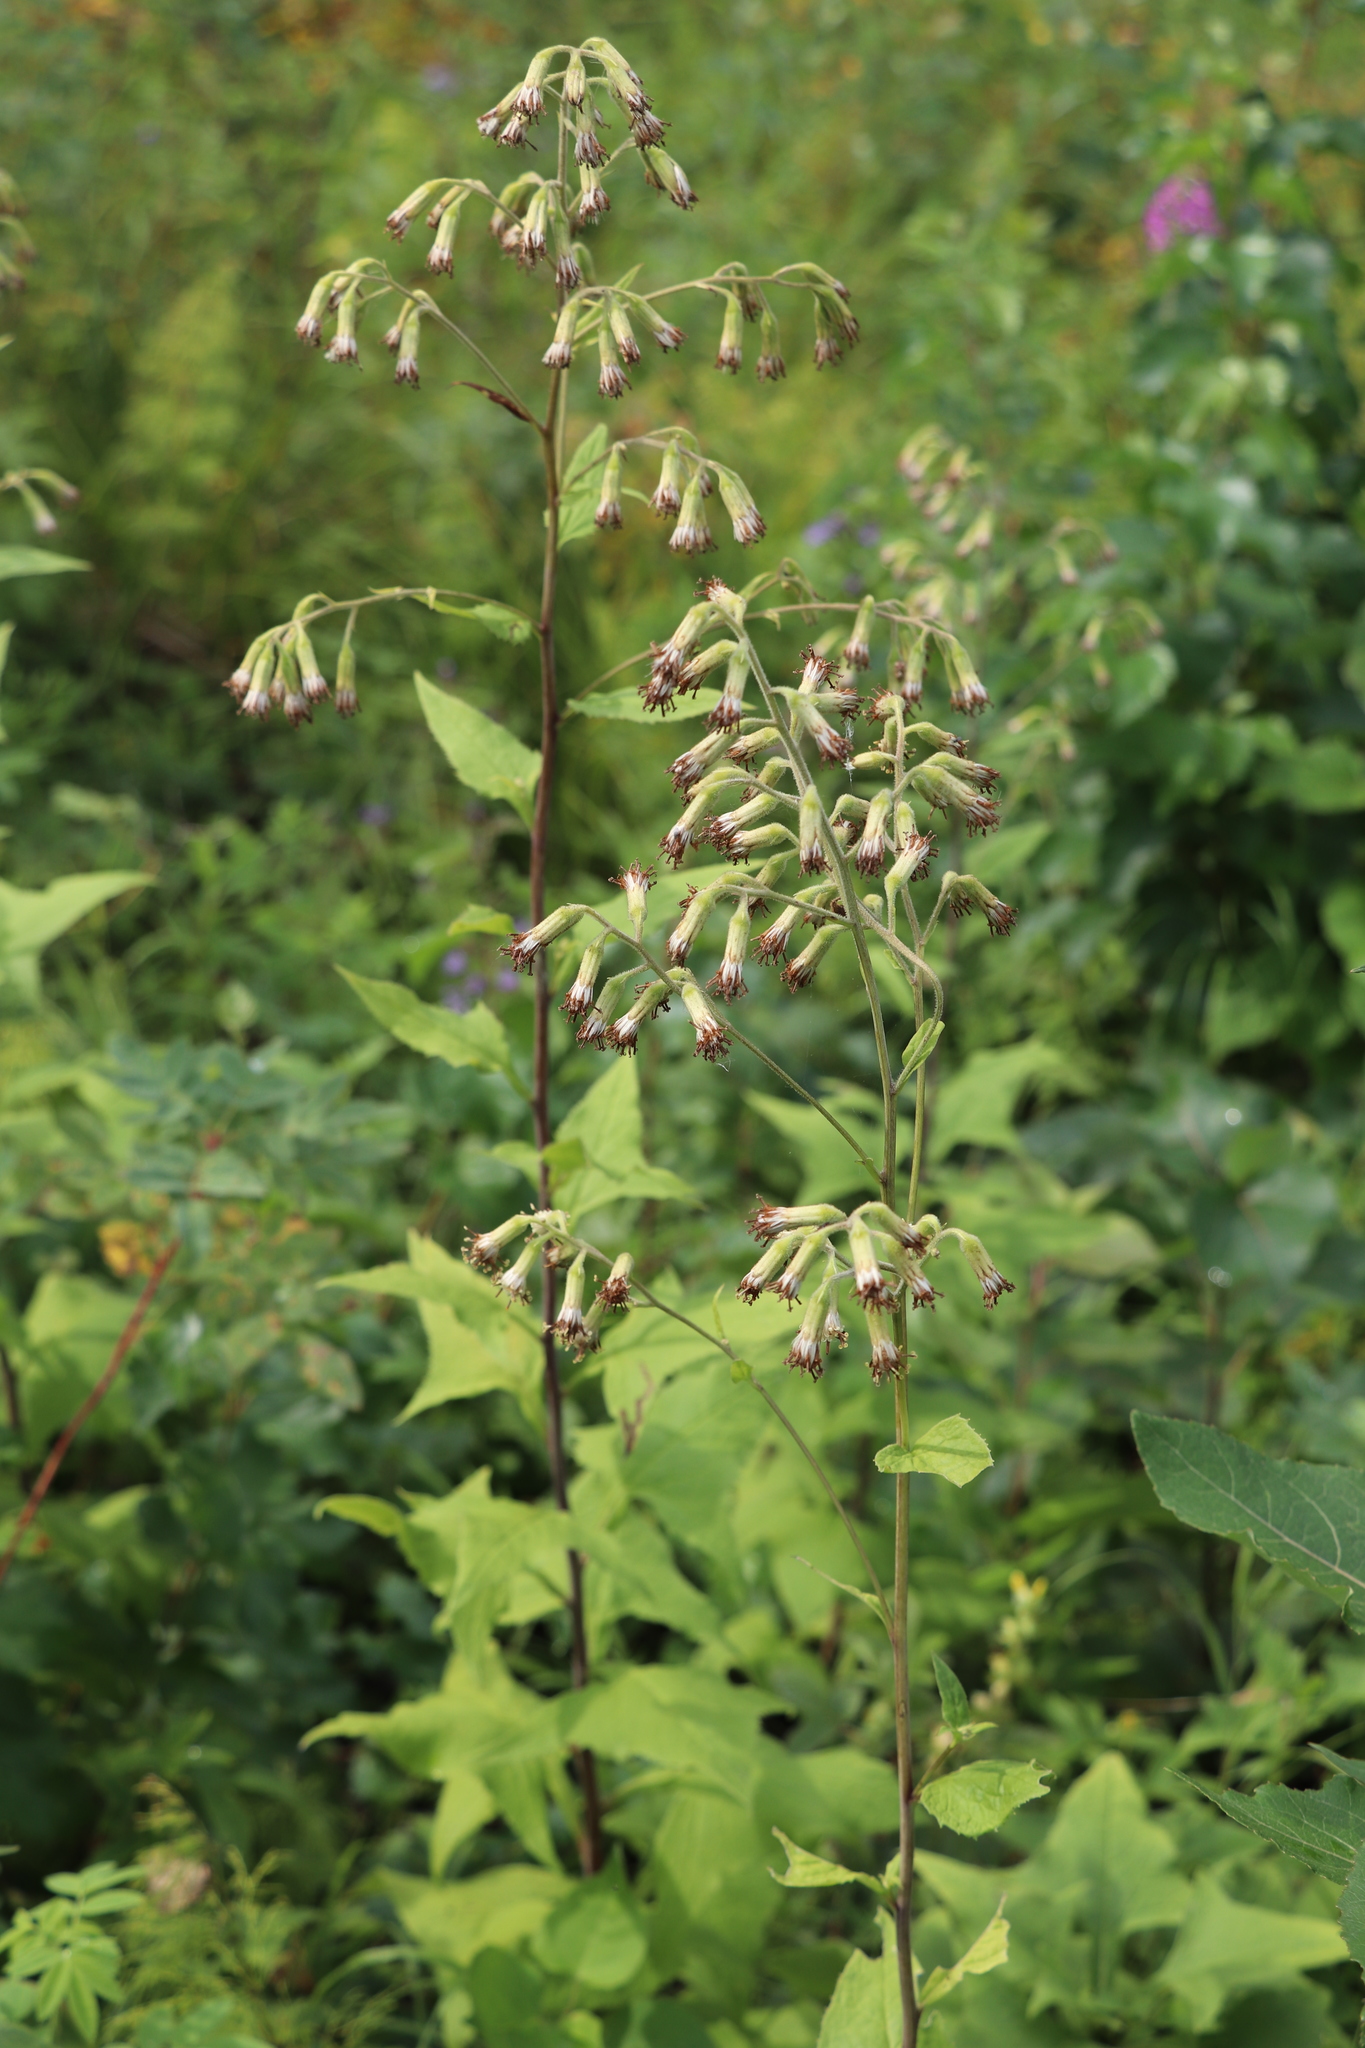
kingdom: Plantae
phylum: Tracheophyta
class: Magnoliopsida
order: Asterales
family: Asteraceae
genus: Parasenecio
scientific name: Parasenecio hastatus
